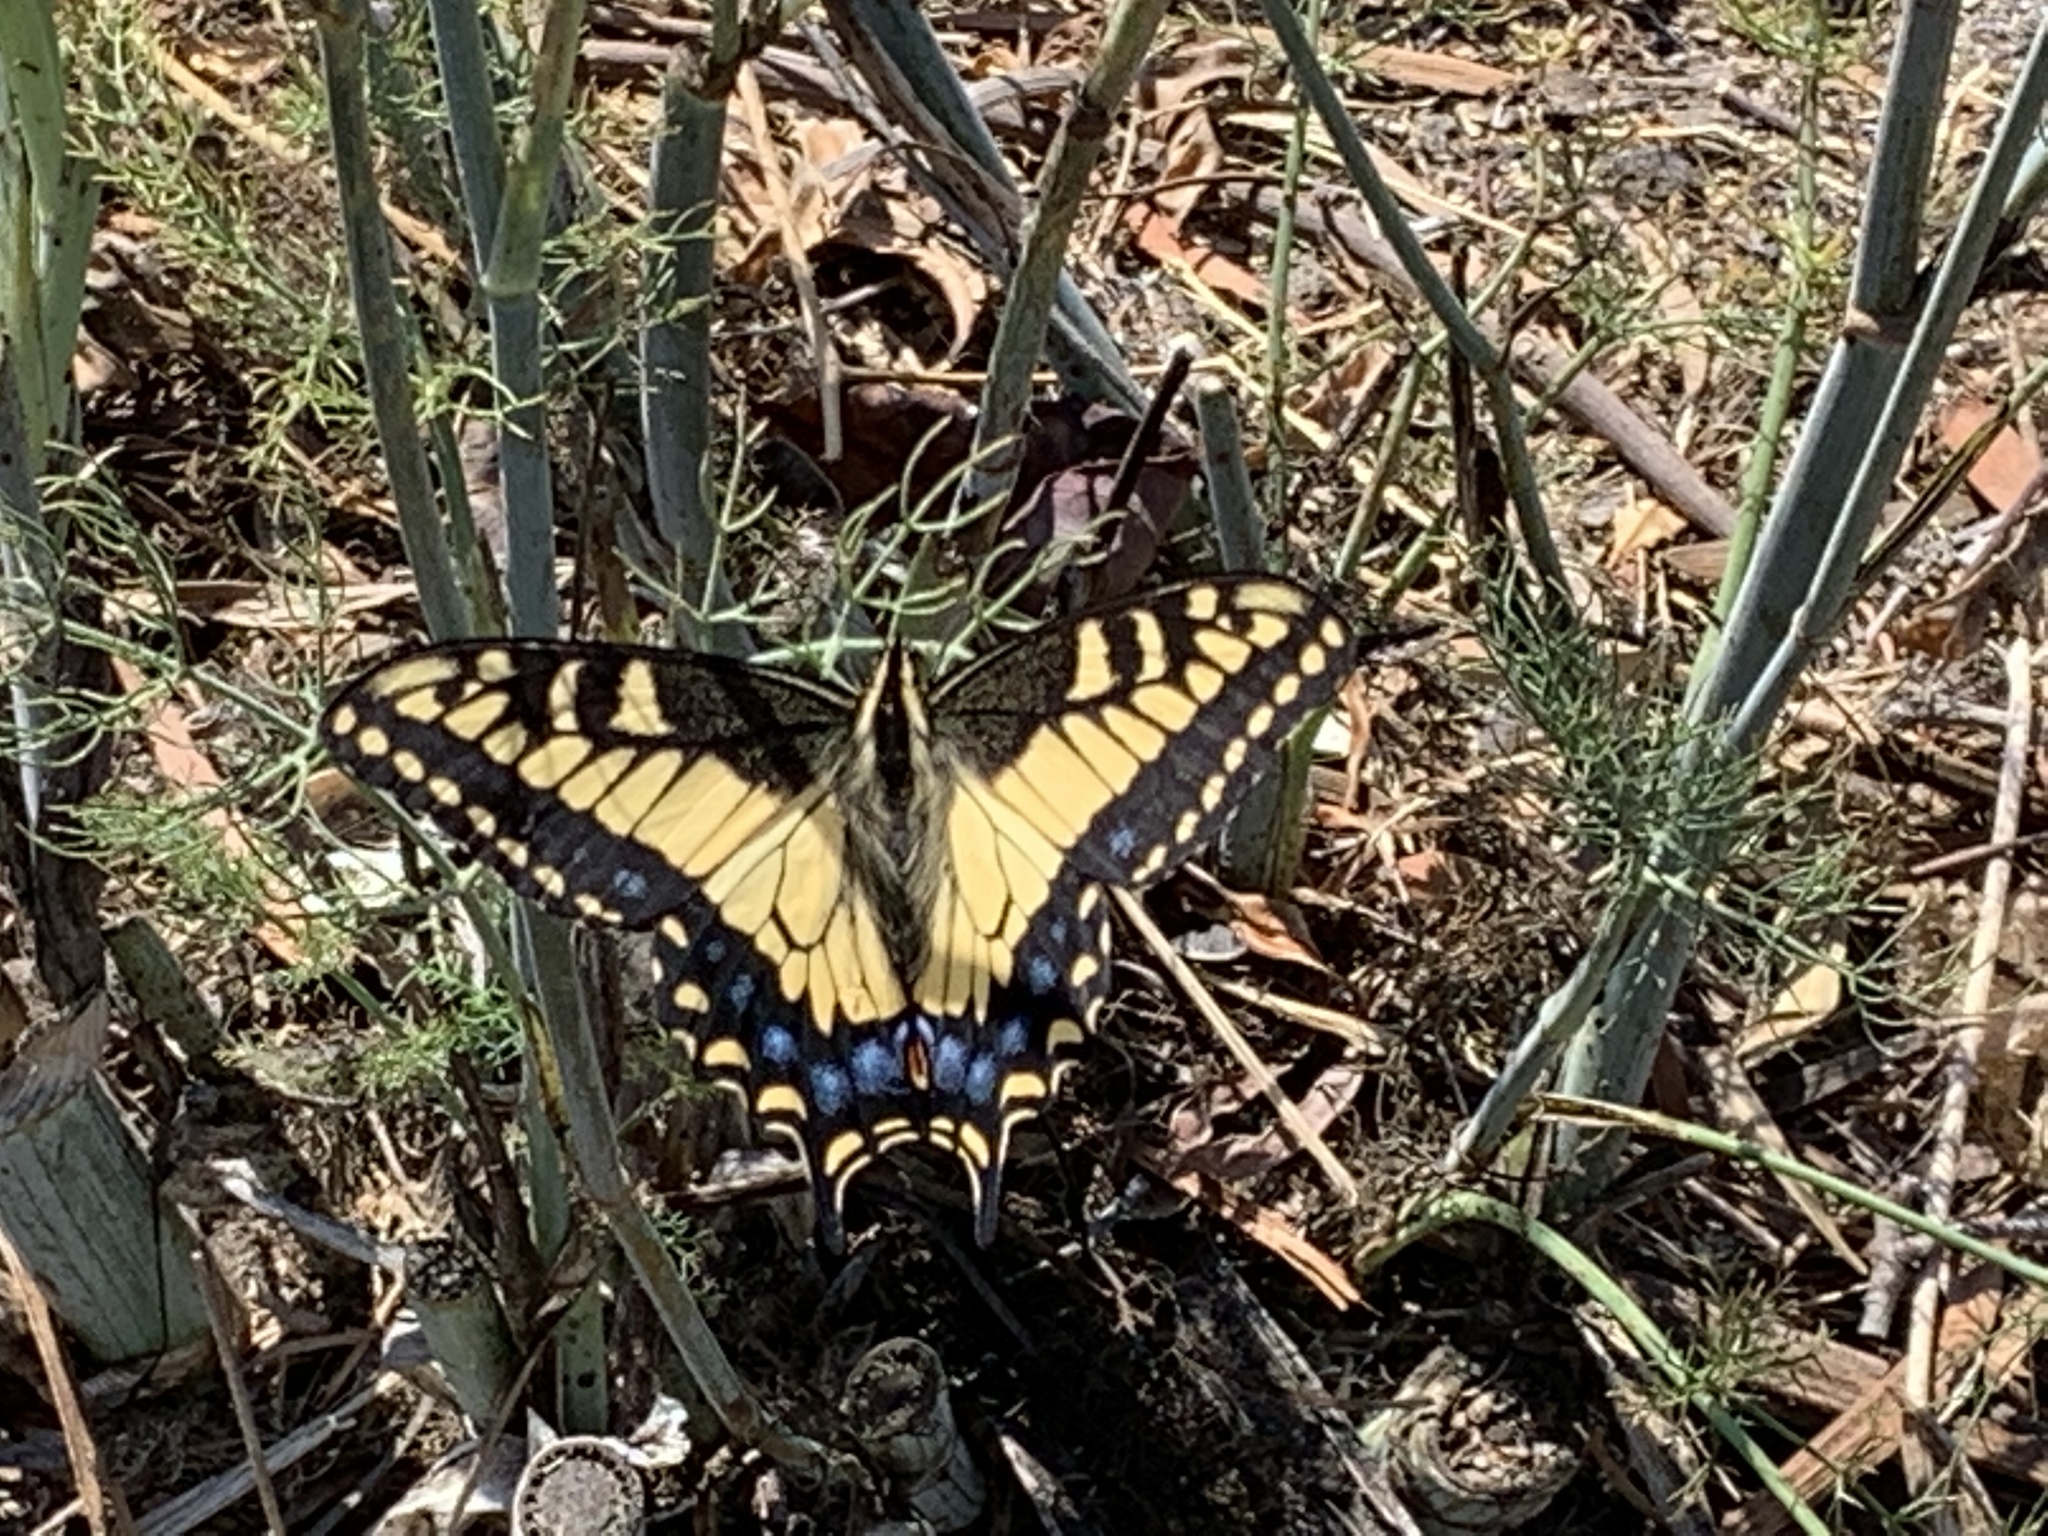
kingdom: Animalia
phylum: Arthropoda
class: Insecta
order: Lepidoptera
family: Papilionidae
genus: Papilio
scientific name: Papilio zelicaon
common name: Anise swallowtail
